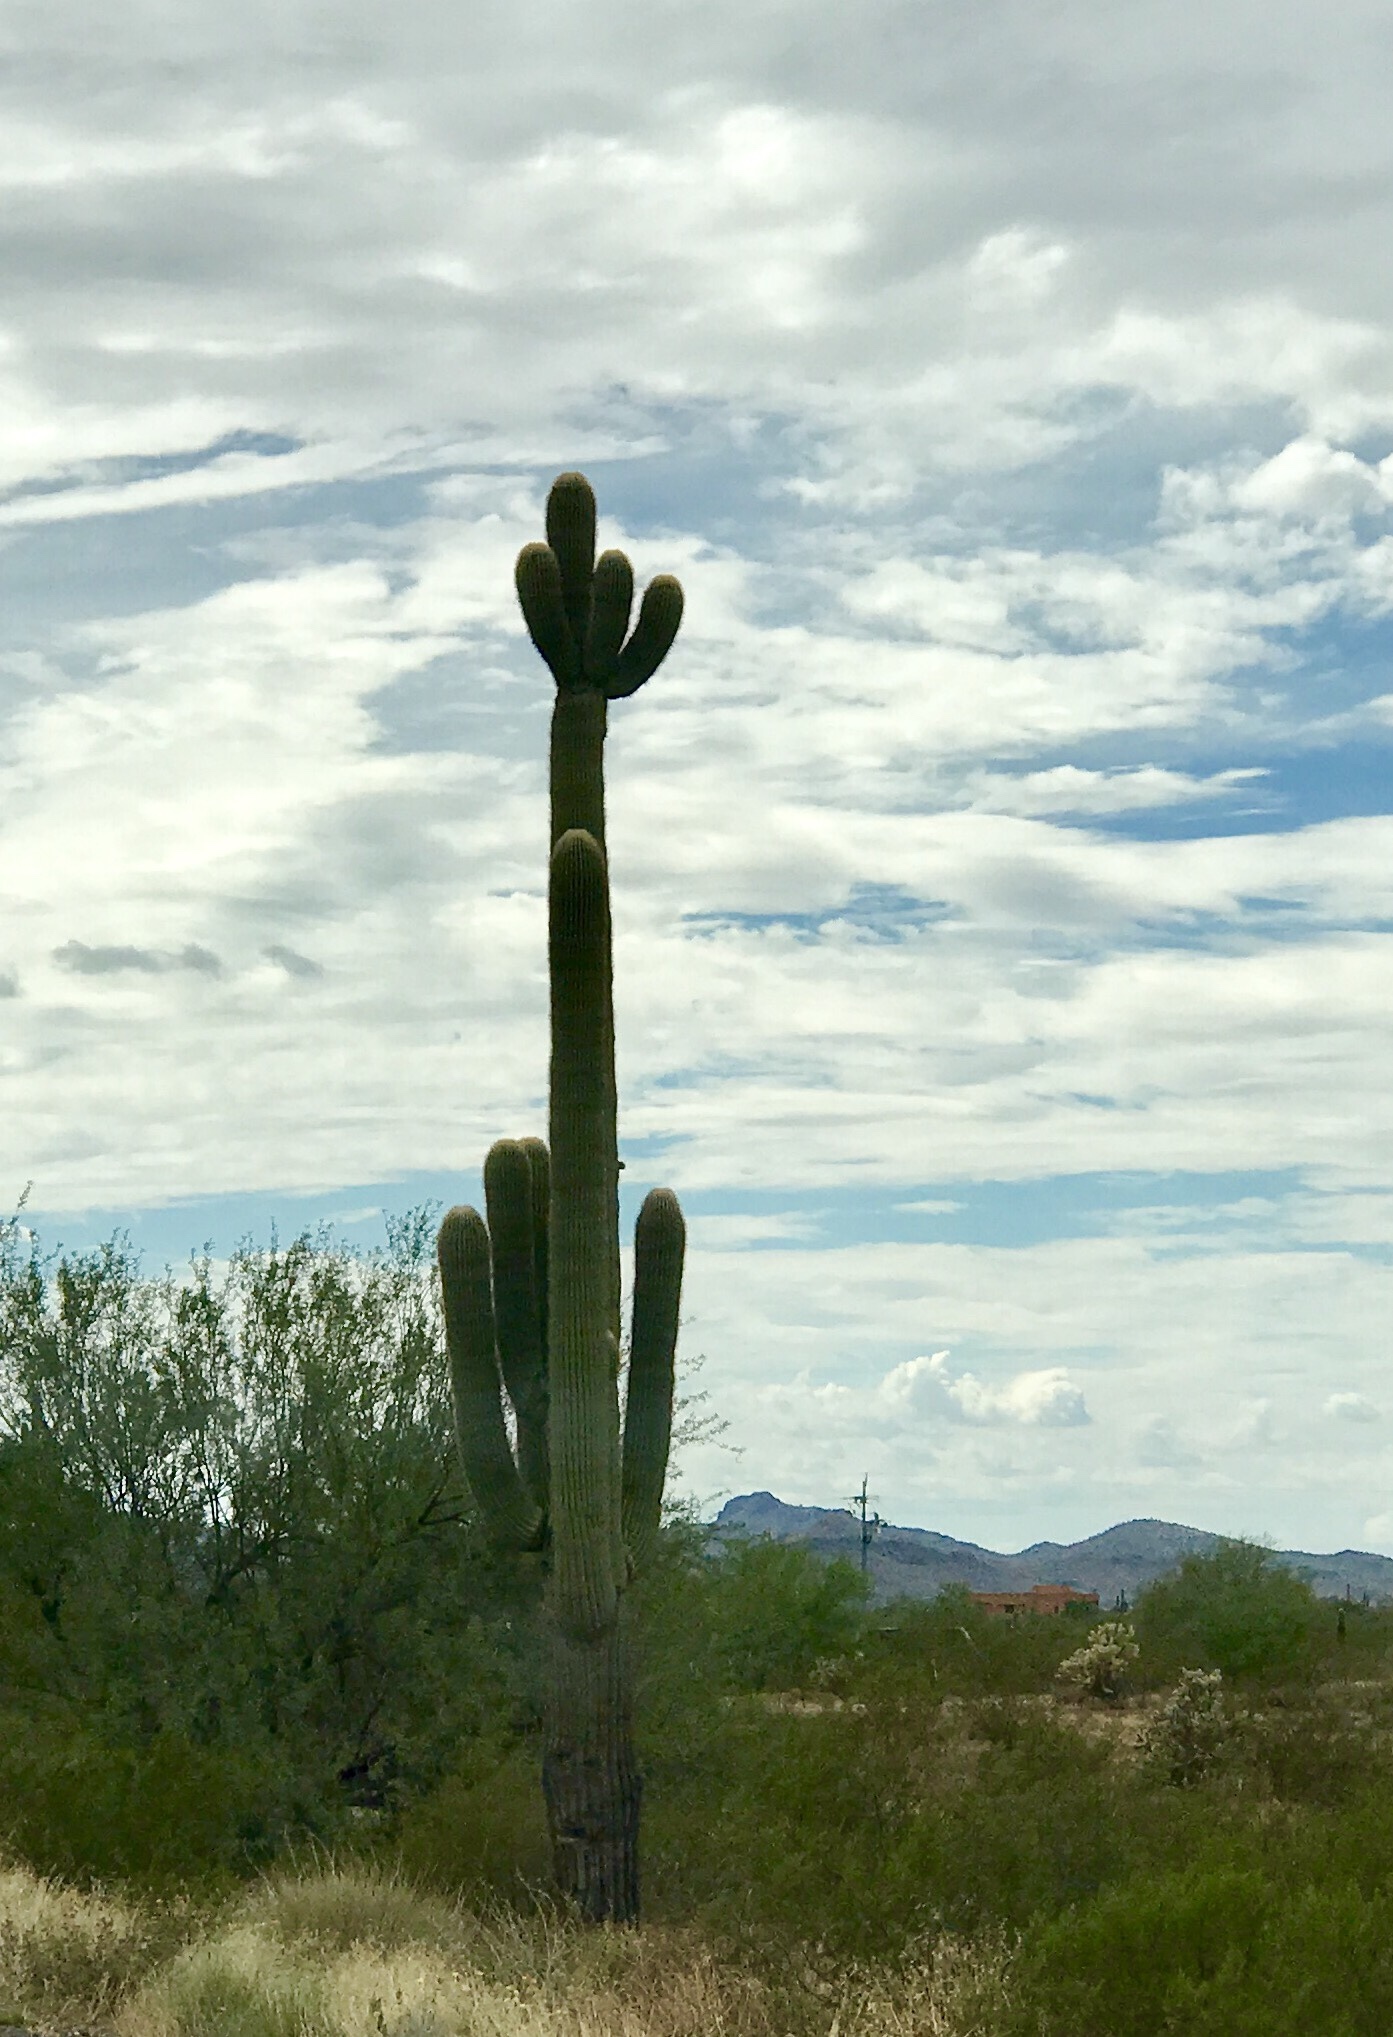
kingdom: Plantae
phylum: Tracheophyta
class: Magnoliopsida
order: Caryophyllales
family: Cactaceae
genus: Carnegiea
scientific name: Carnegiea gigantea
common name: Saguaro
